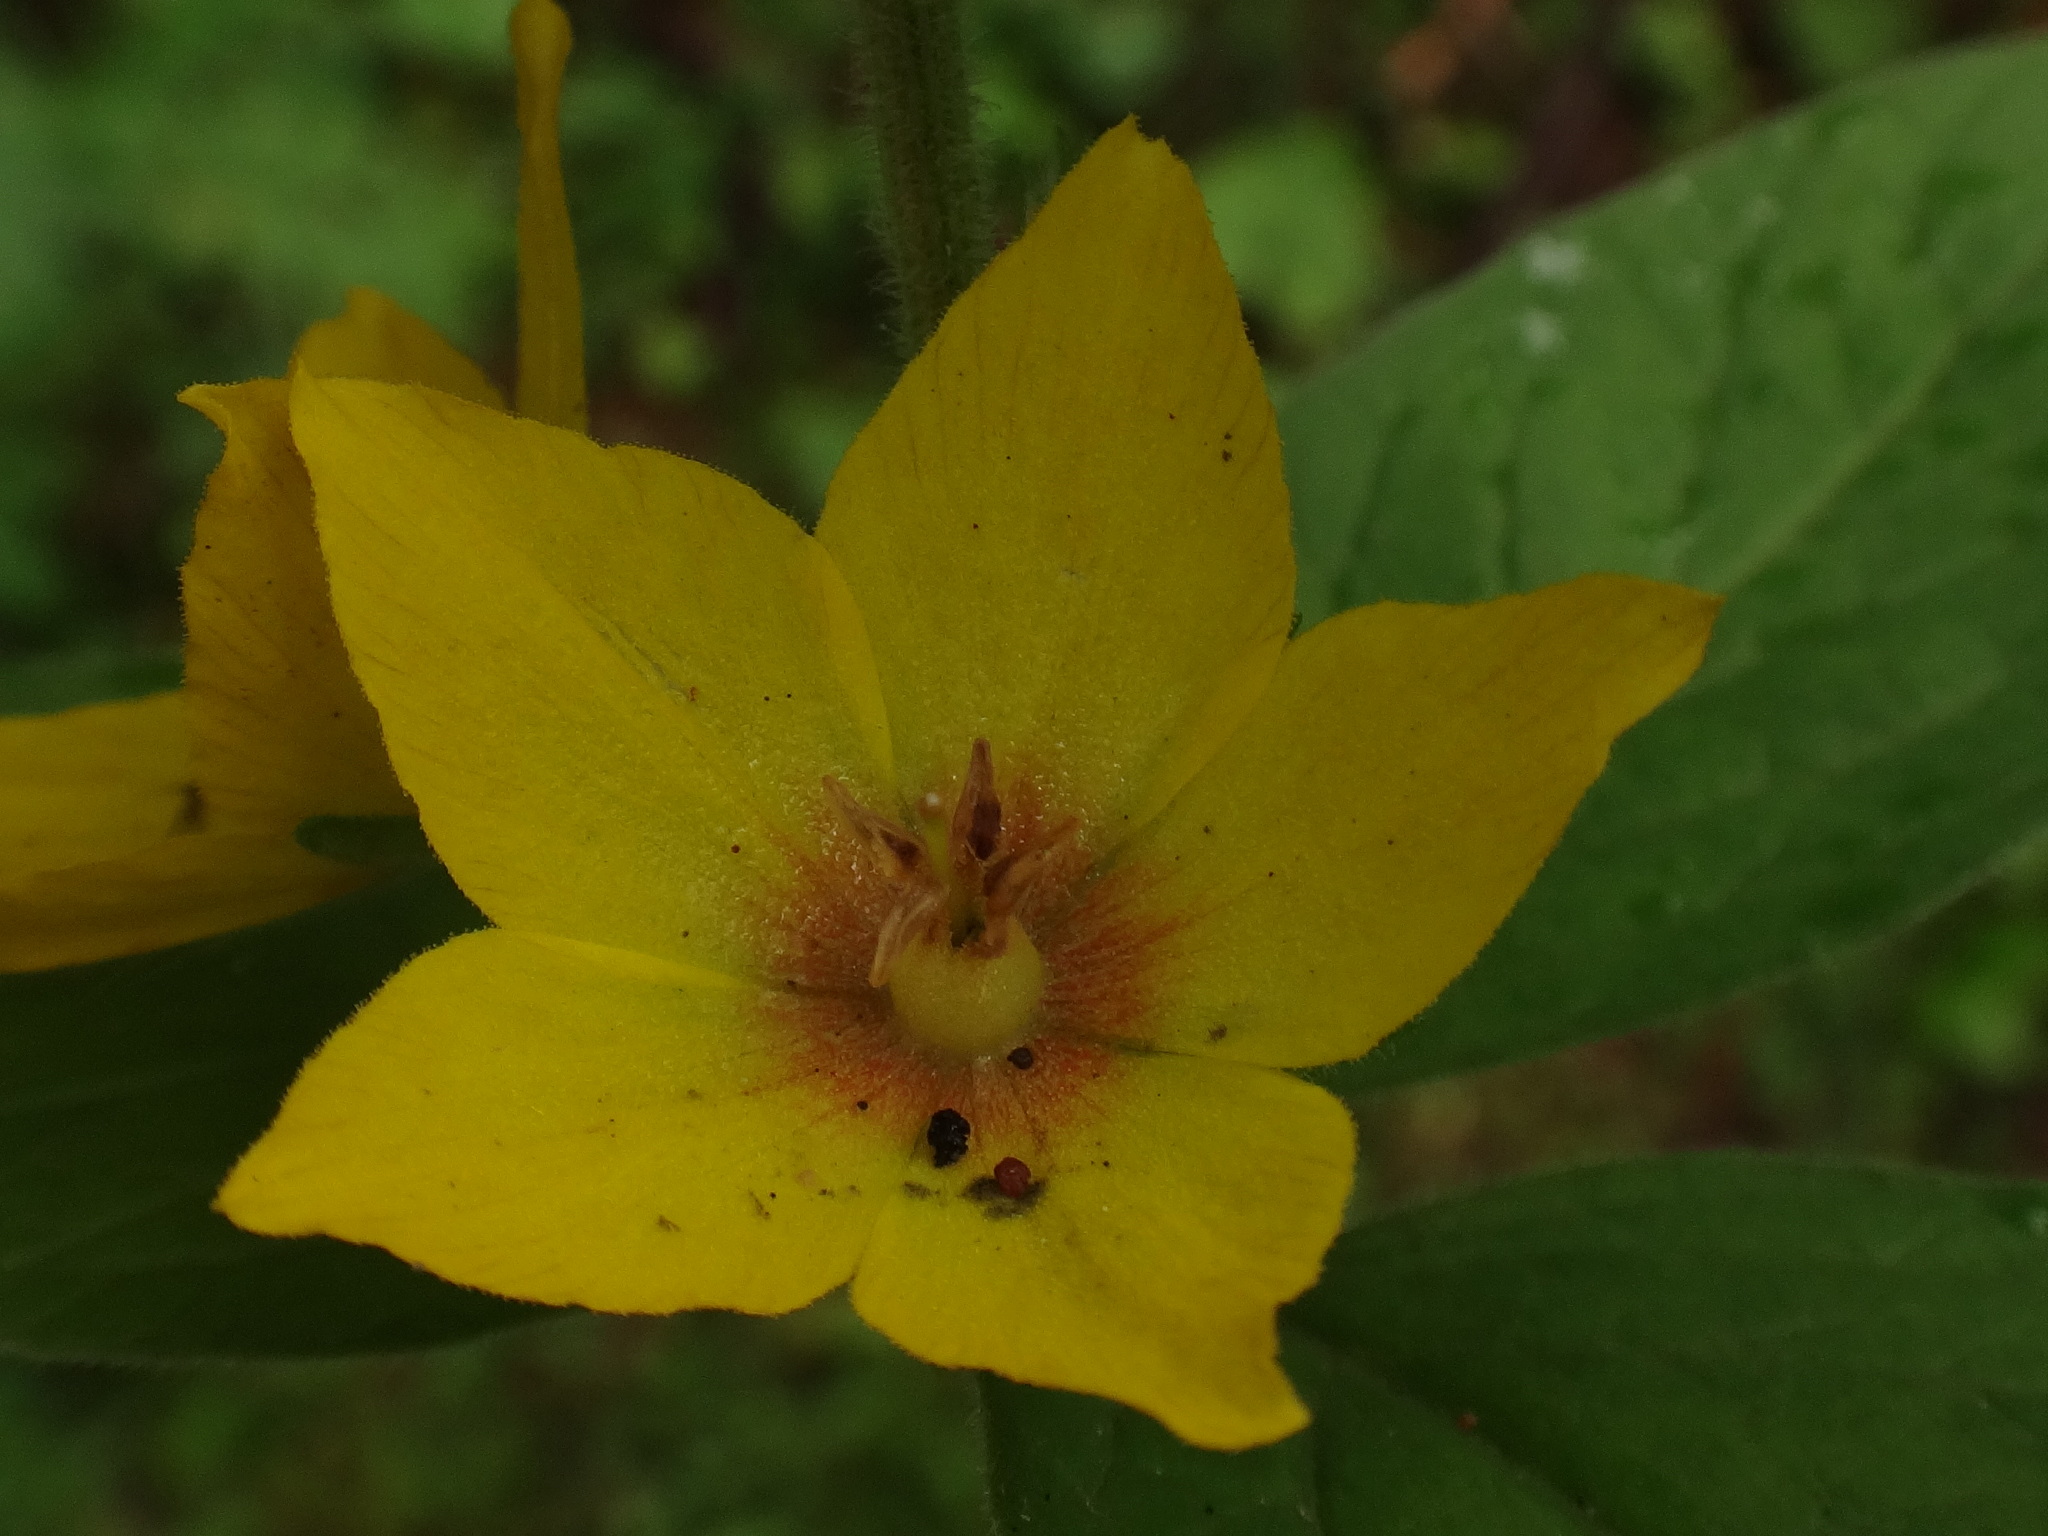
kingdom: Plantae
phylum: Tracheophyta
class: Magnoliopsida
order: Ericales
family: Primulaceae
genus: Lysimachia
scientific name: Lysimachia punctata
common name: Dotted loosestrife
